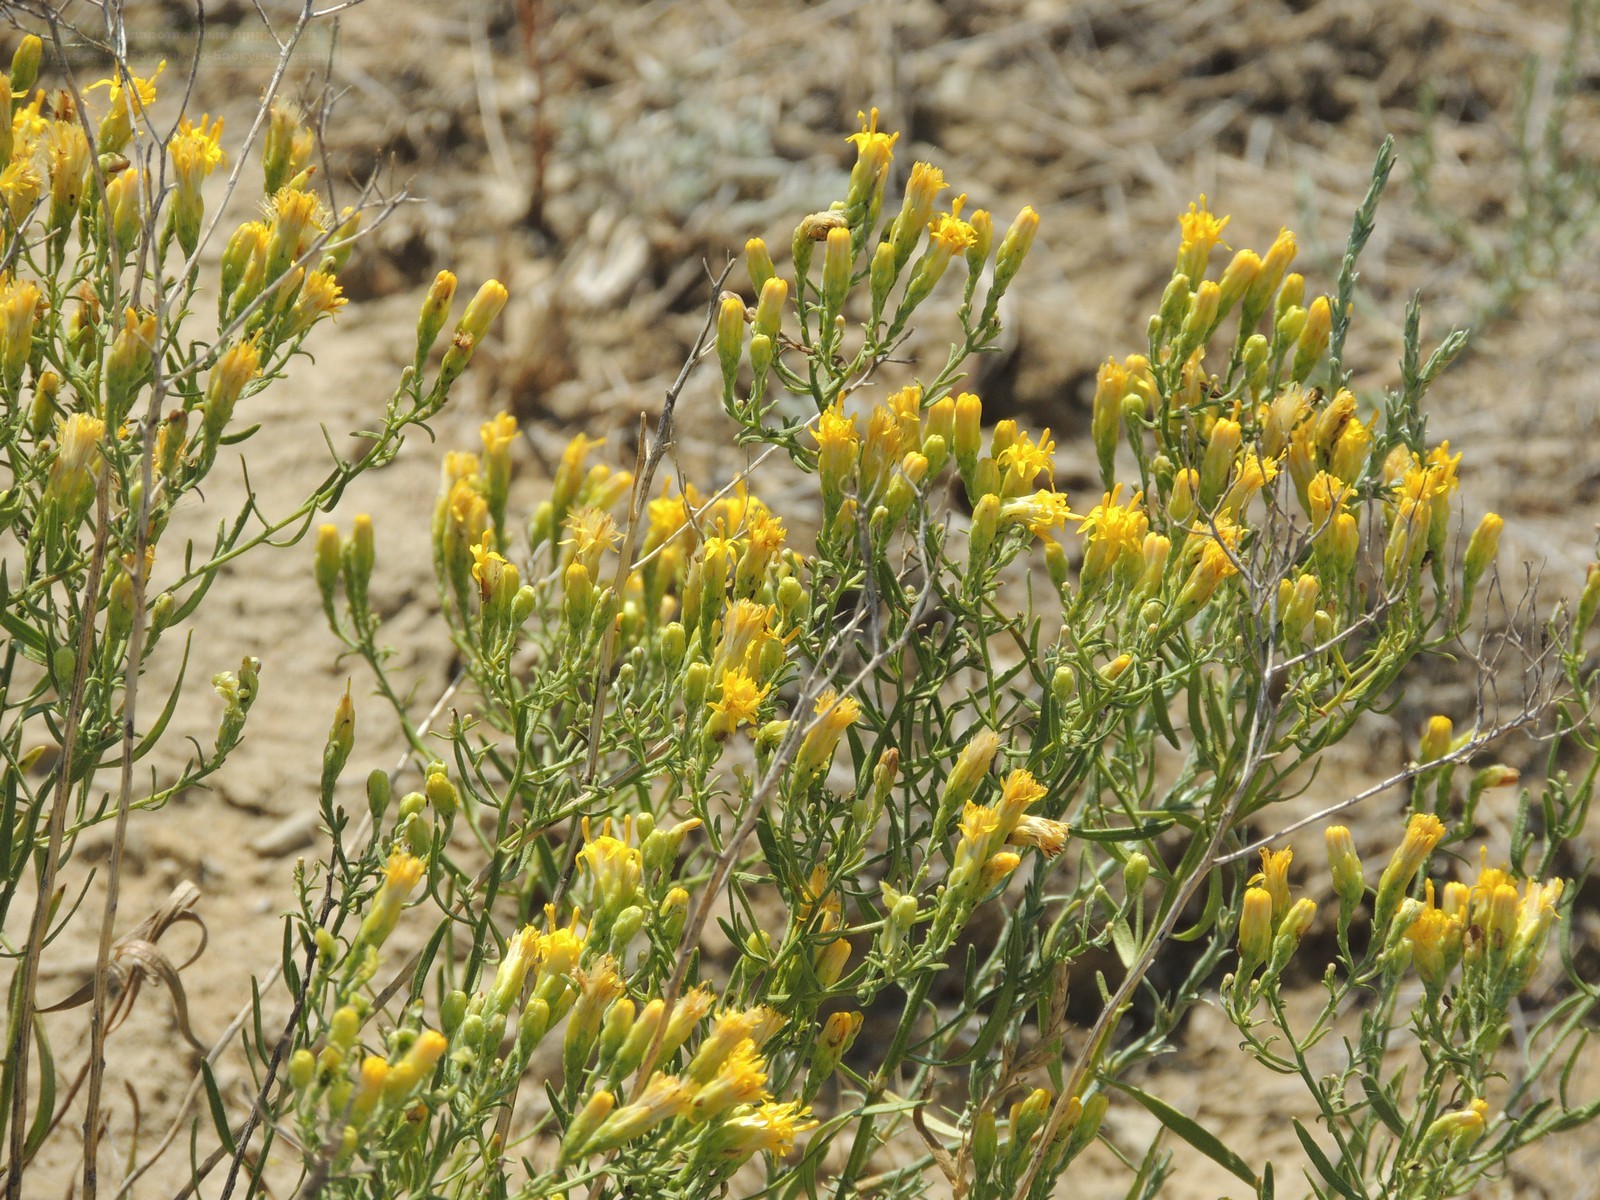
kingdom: Plantae
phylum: Tracheophyta
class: Magnoliopsida
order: Asterales
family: Asteraceae
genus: Galatella
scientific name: Galatella sedifolia
